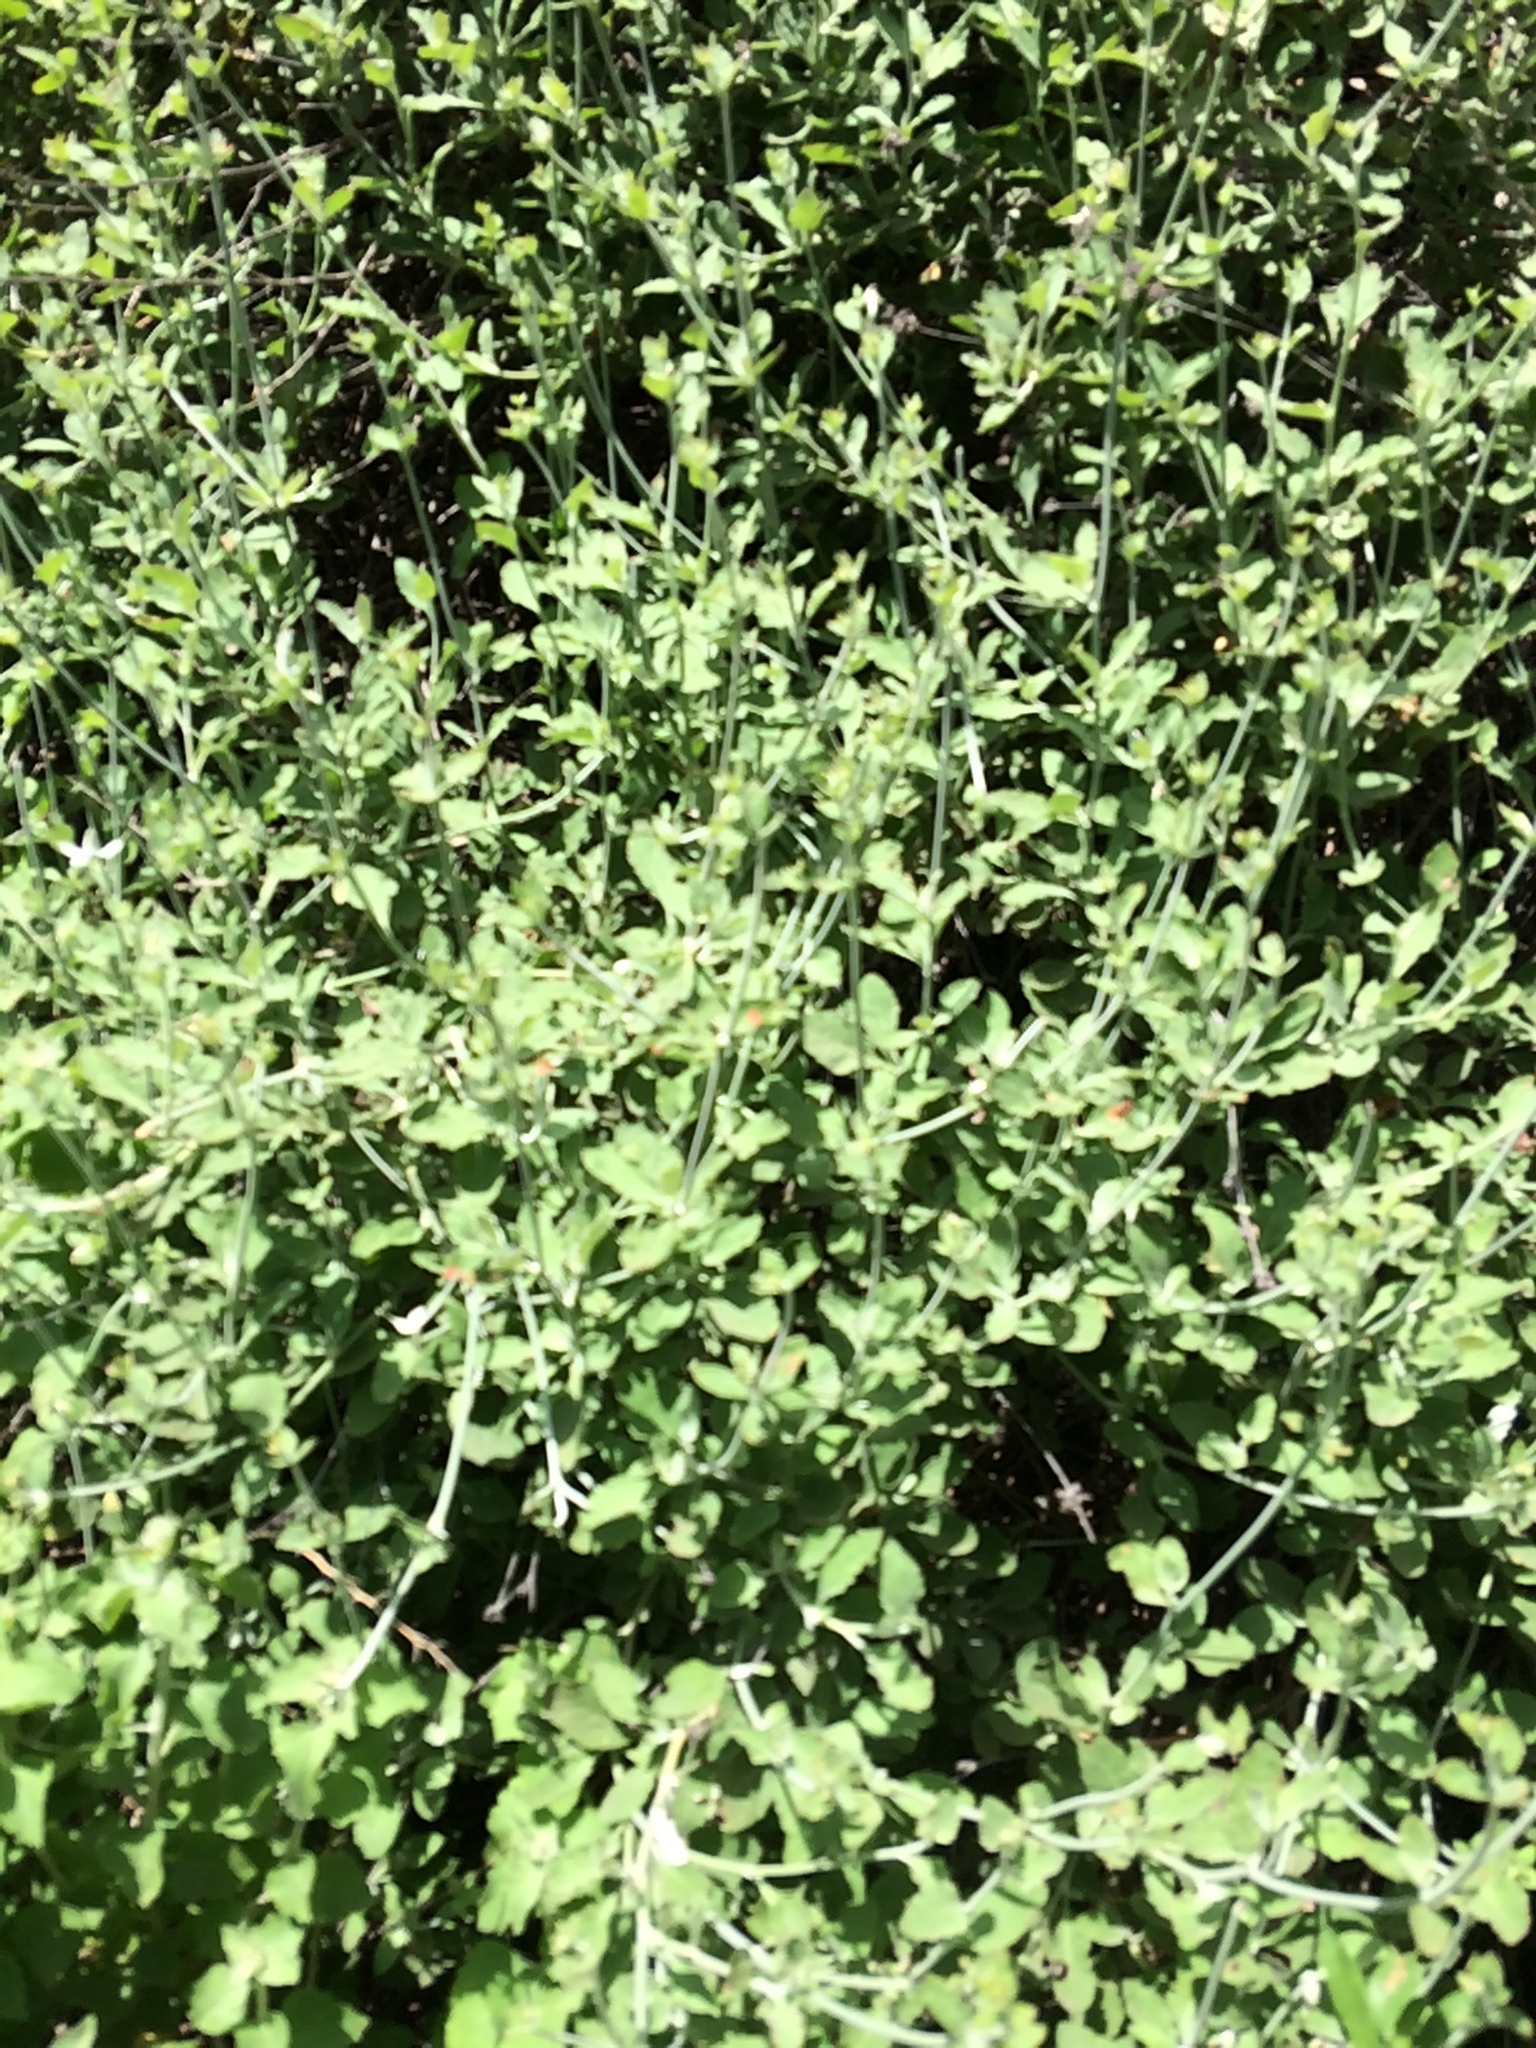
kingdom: Plantae
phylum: Tracheophyta
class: Magnoliopsida
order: Caryophyllales
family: Polygonaceae
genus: Eriogonum
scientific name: Eriogonum cinereum
